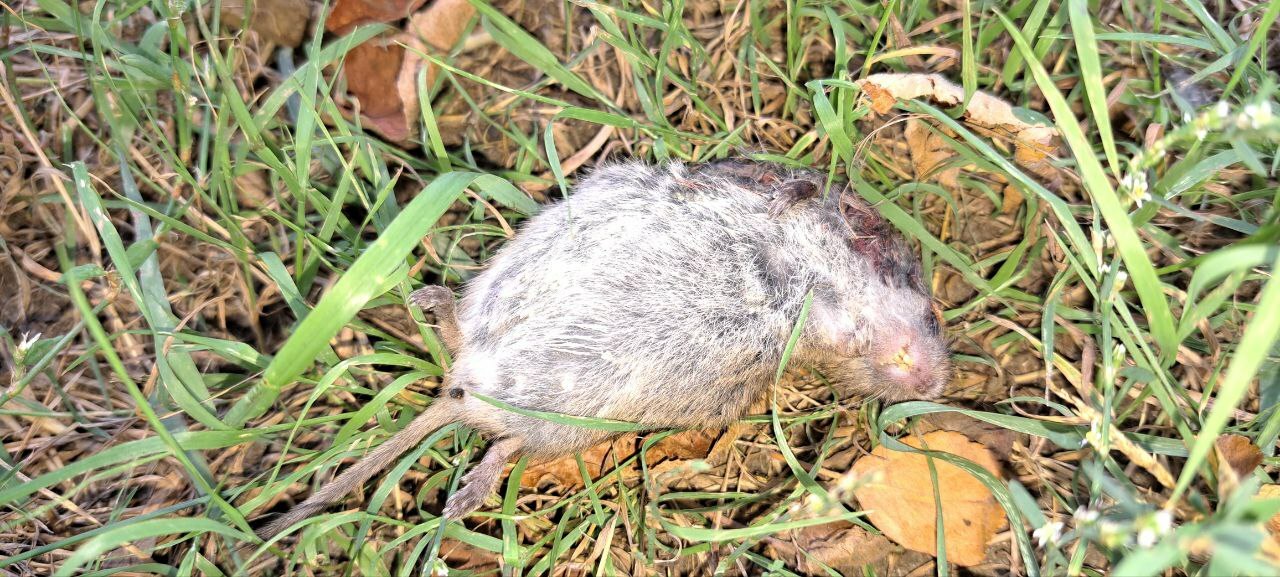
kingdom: Animalia
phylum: Chordata
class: Mammalia
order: Rodentia
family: Cricetidae
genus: Microtus
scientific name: Microtus
